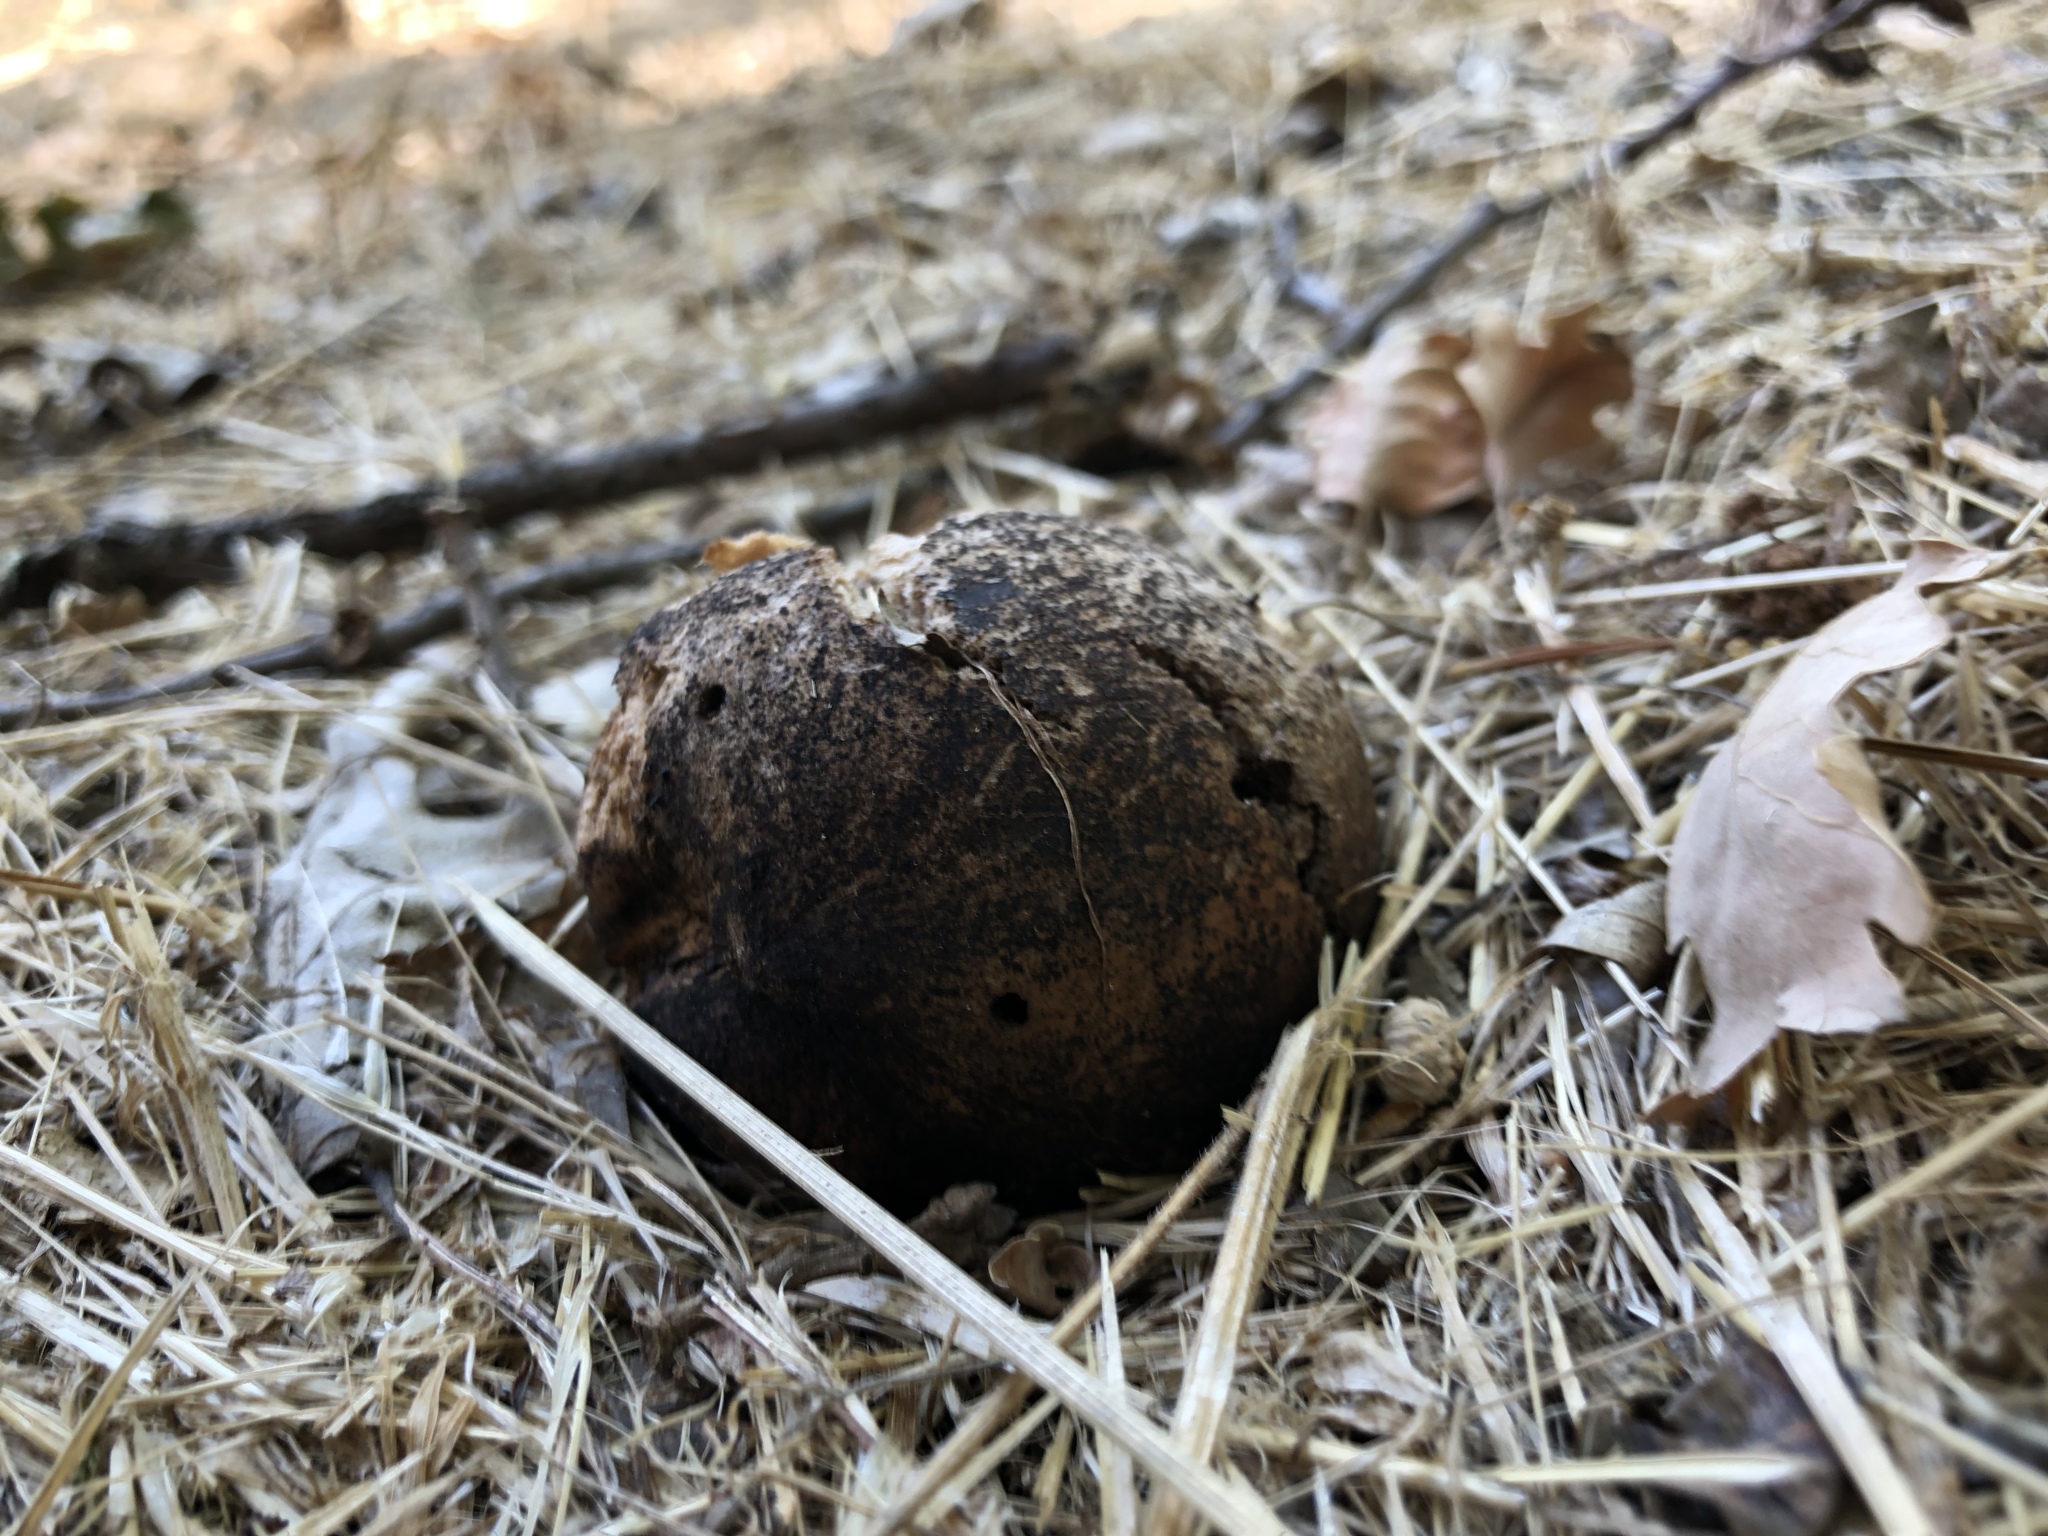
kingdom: Animalia
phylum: Arthropoda
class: Insecta
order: Hymenoptera
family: Cynipidae
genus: Andricus
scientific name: Andricus quercuscalifornicus
